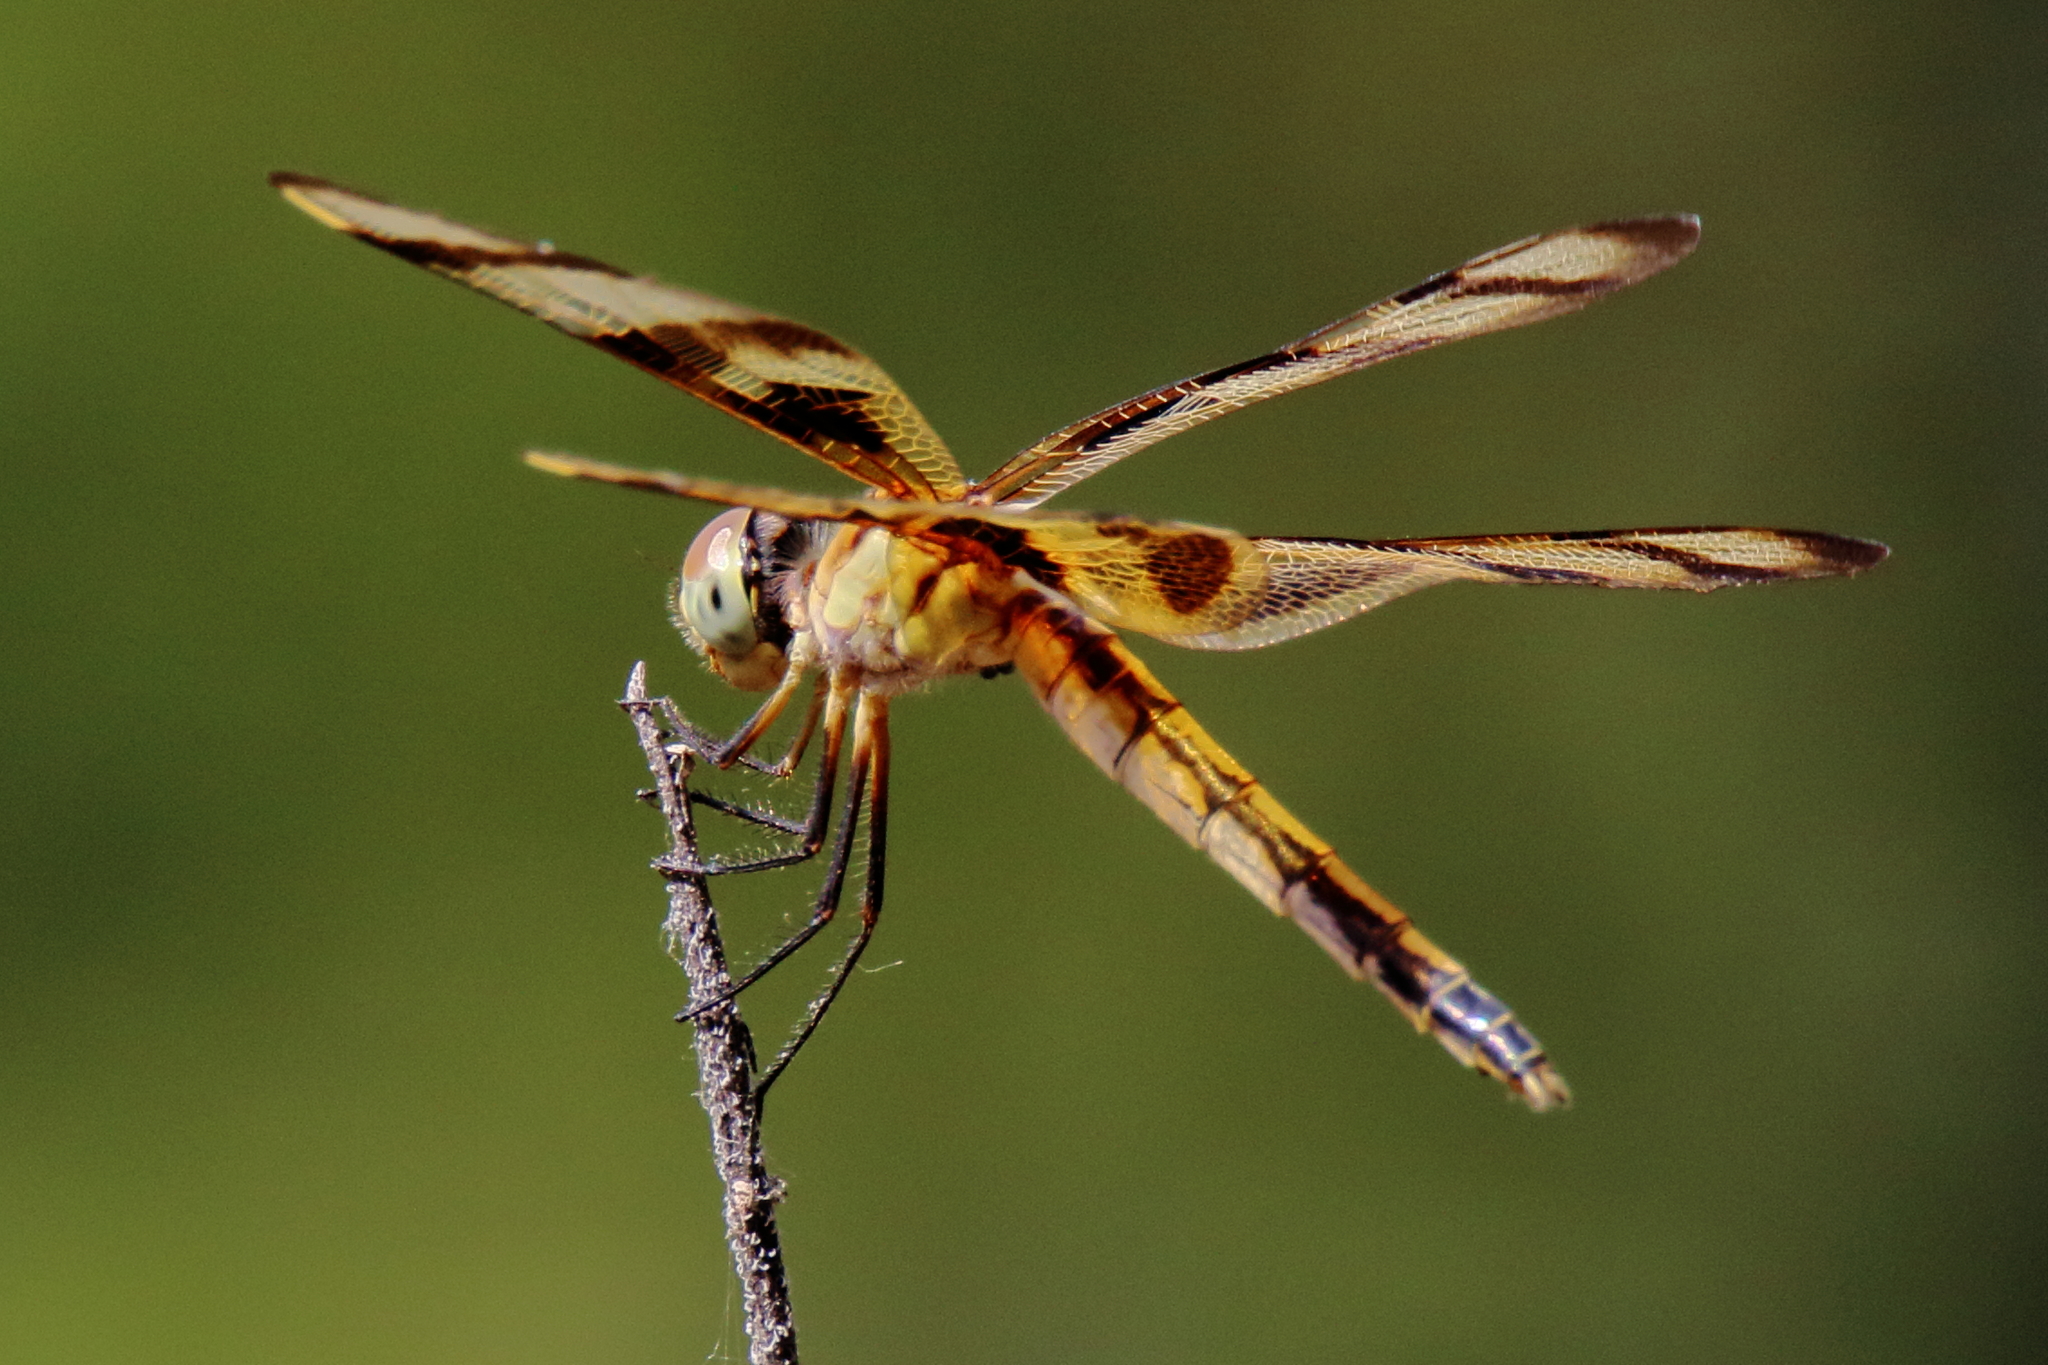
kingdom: Animalia
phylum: Arthropoda
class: Insecta
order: Odonata
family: Libellulidae
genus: Celithemis
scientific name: Celithemis eponina
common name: Halloween pennant
